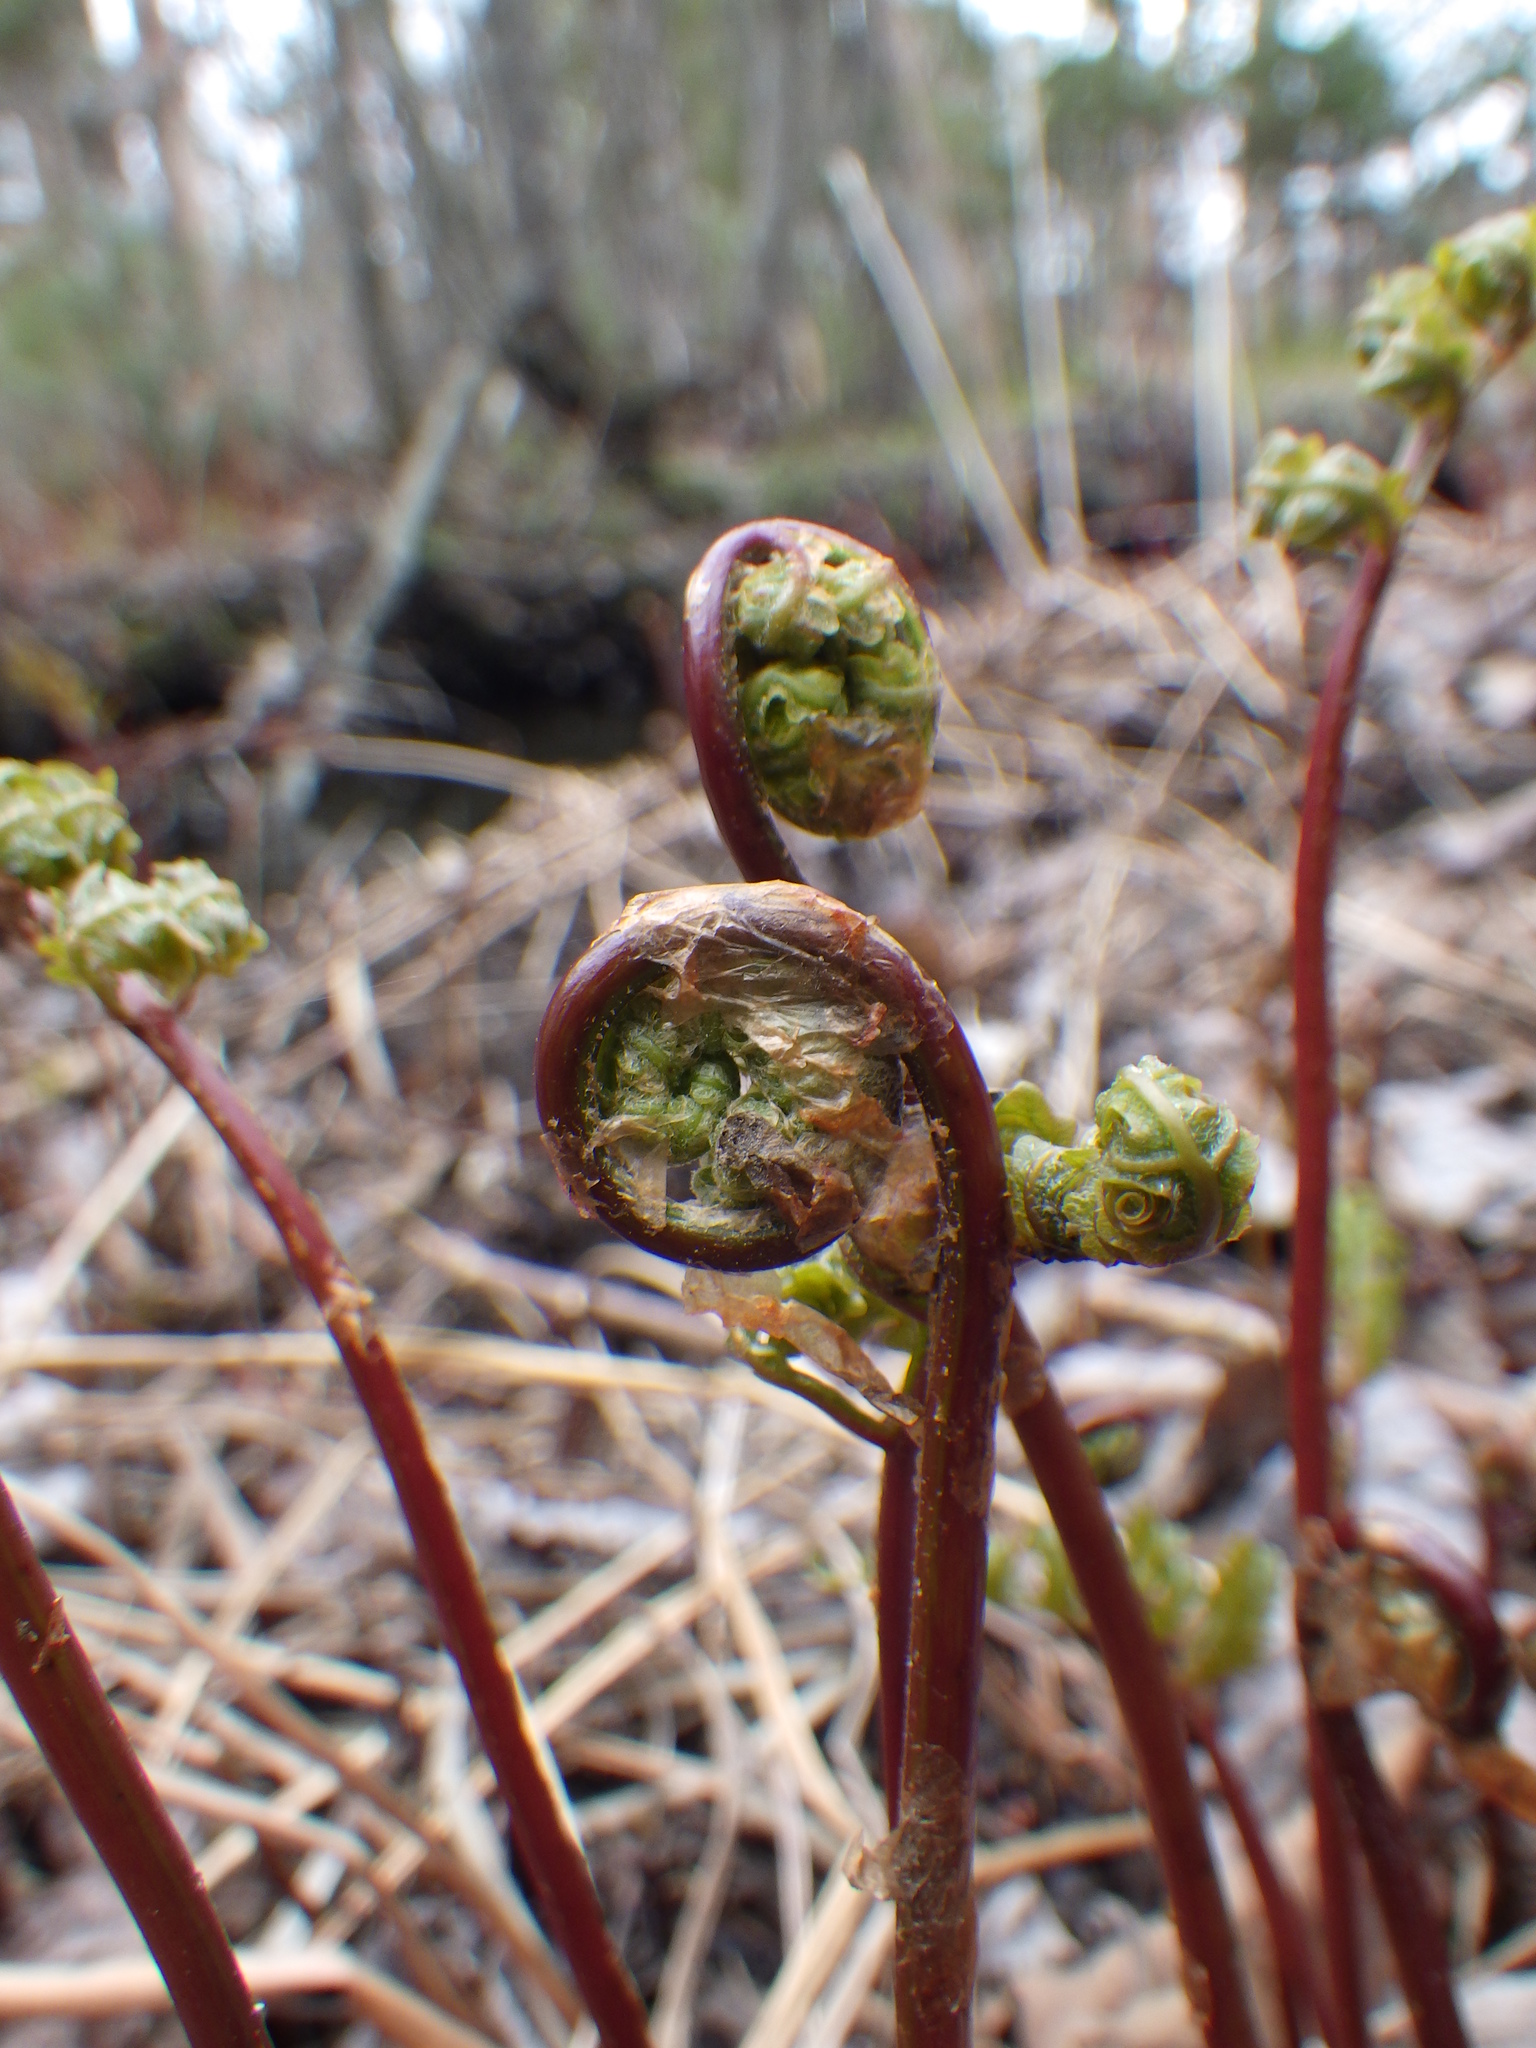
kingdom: Plantae
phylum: Tracheophyta
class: Polypodiopsida
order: Polypodiales
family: Onocleaceae
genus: Onoclea
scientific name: Onoclea sensibilis
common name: Sensitive fern
